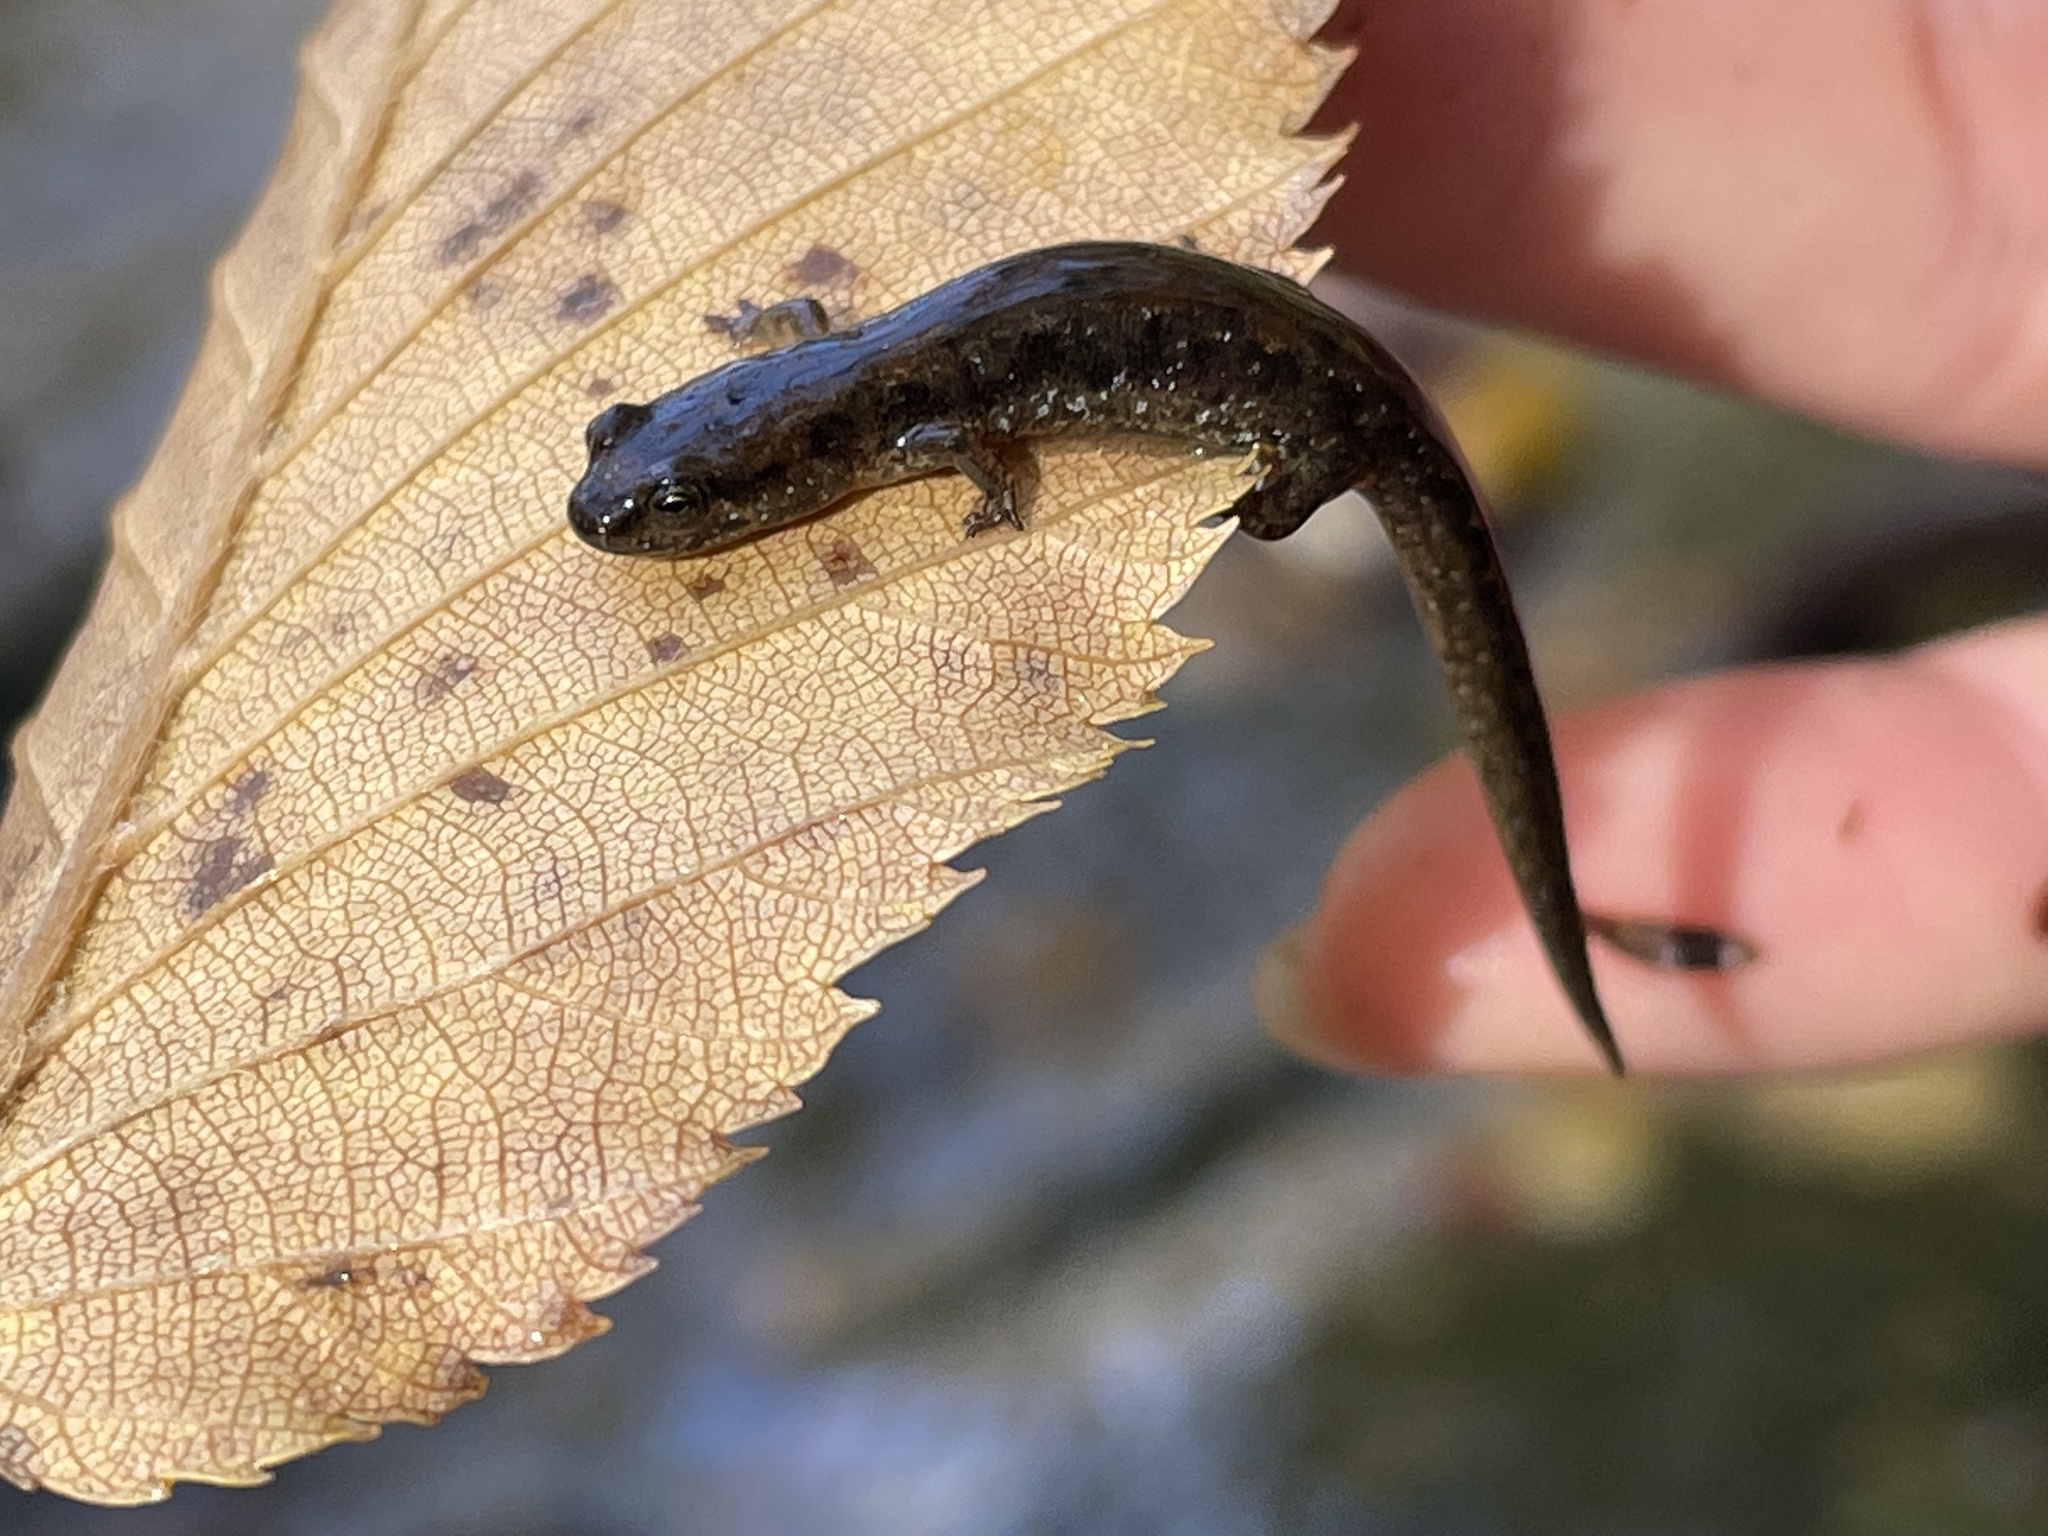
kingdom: Animalia
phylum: Chordata
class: Amphibia
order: Caudata
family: Plethodontidae
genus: Desmognathus
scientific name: Desmognathus fuscus
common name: Northern dusky salamander
